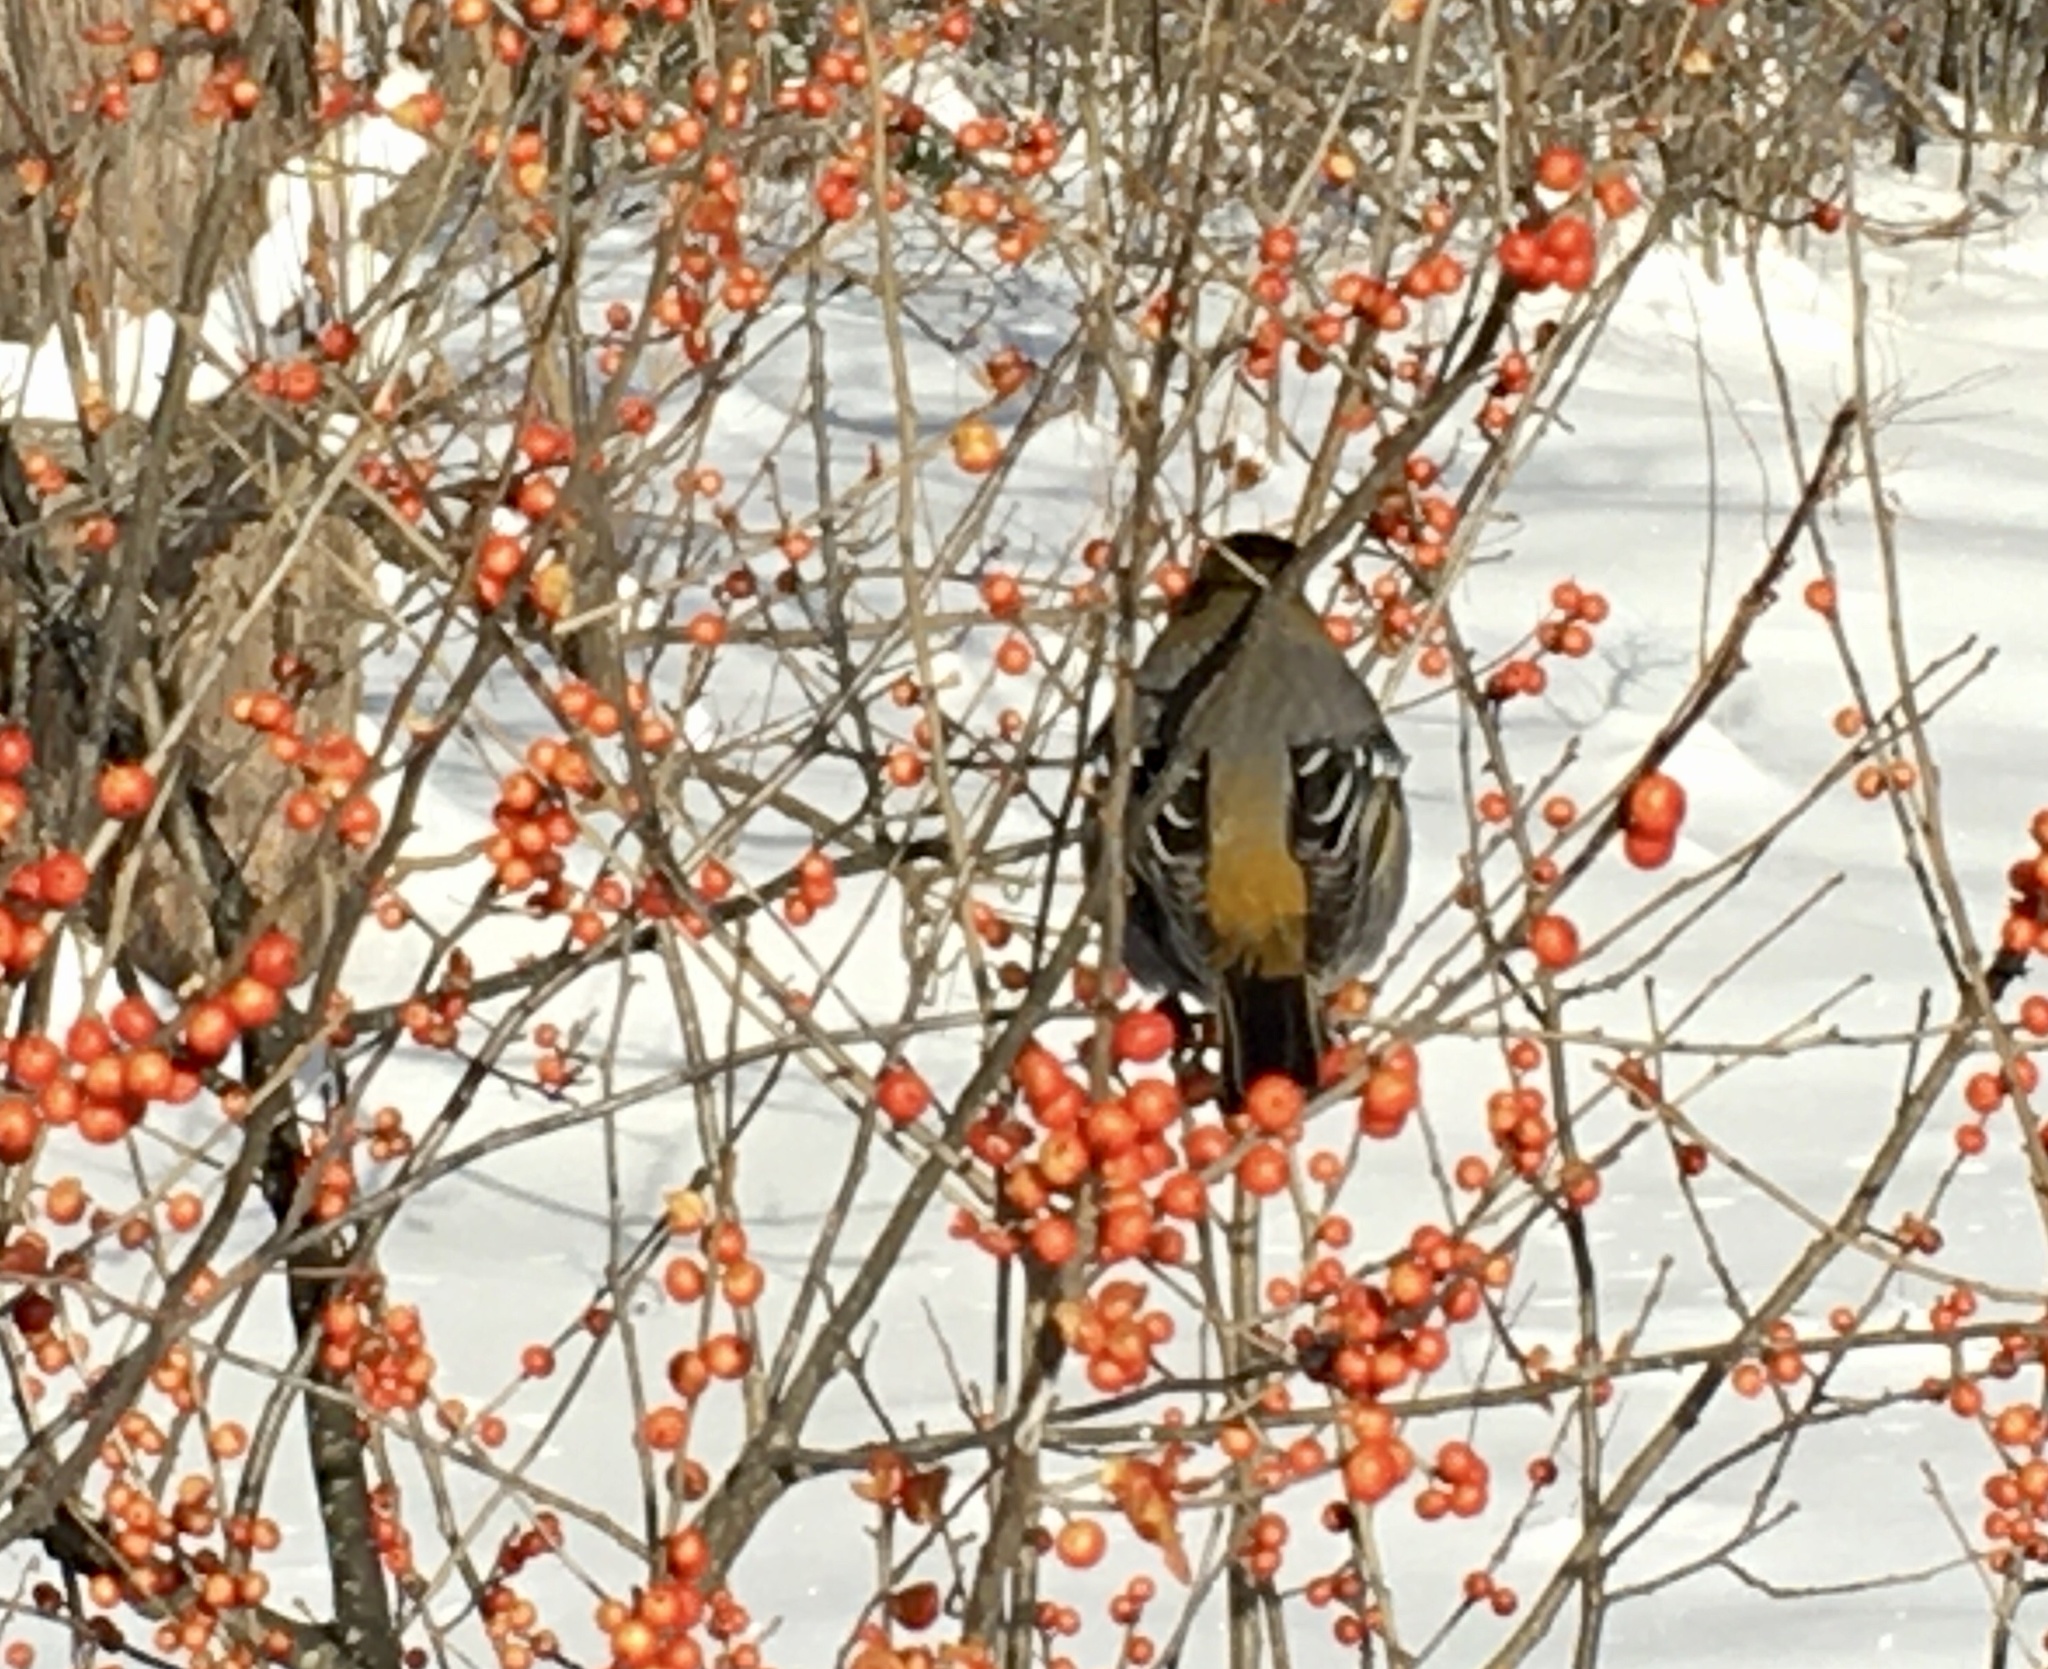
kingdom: Animalia
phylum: Chordata
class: Aves
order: Passeriformes
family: Fringillidae
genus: Pinicola
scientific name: Pinicola enucleator
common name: Pine grosbeak
